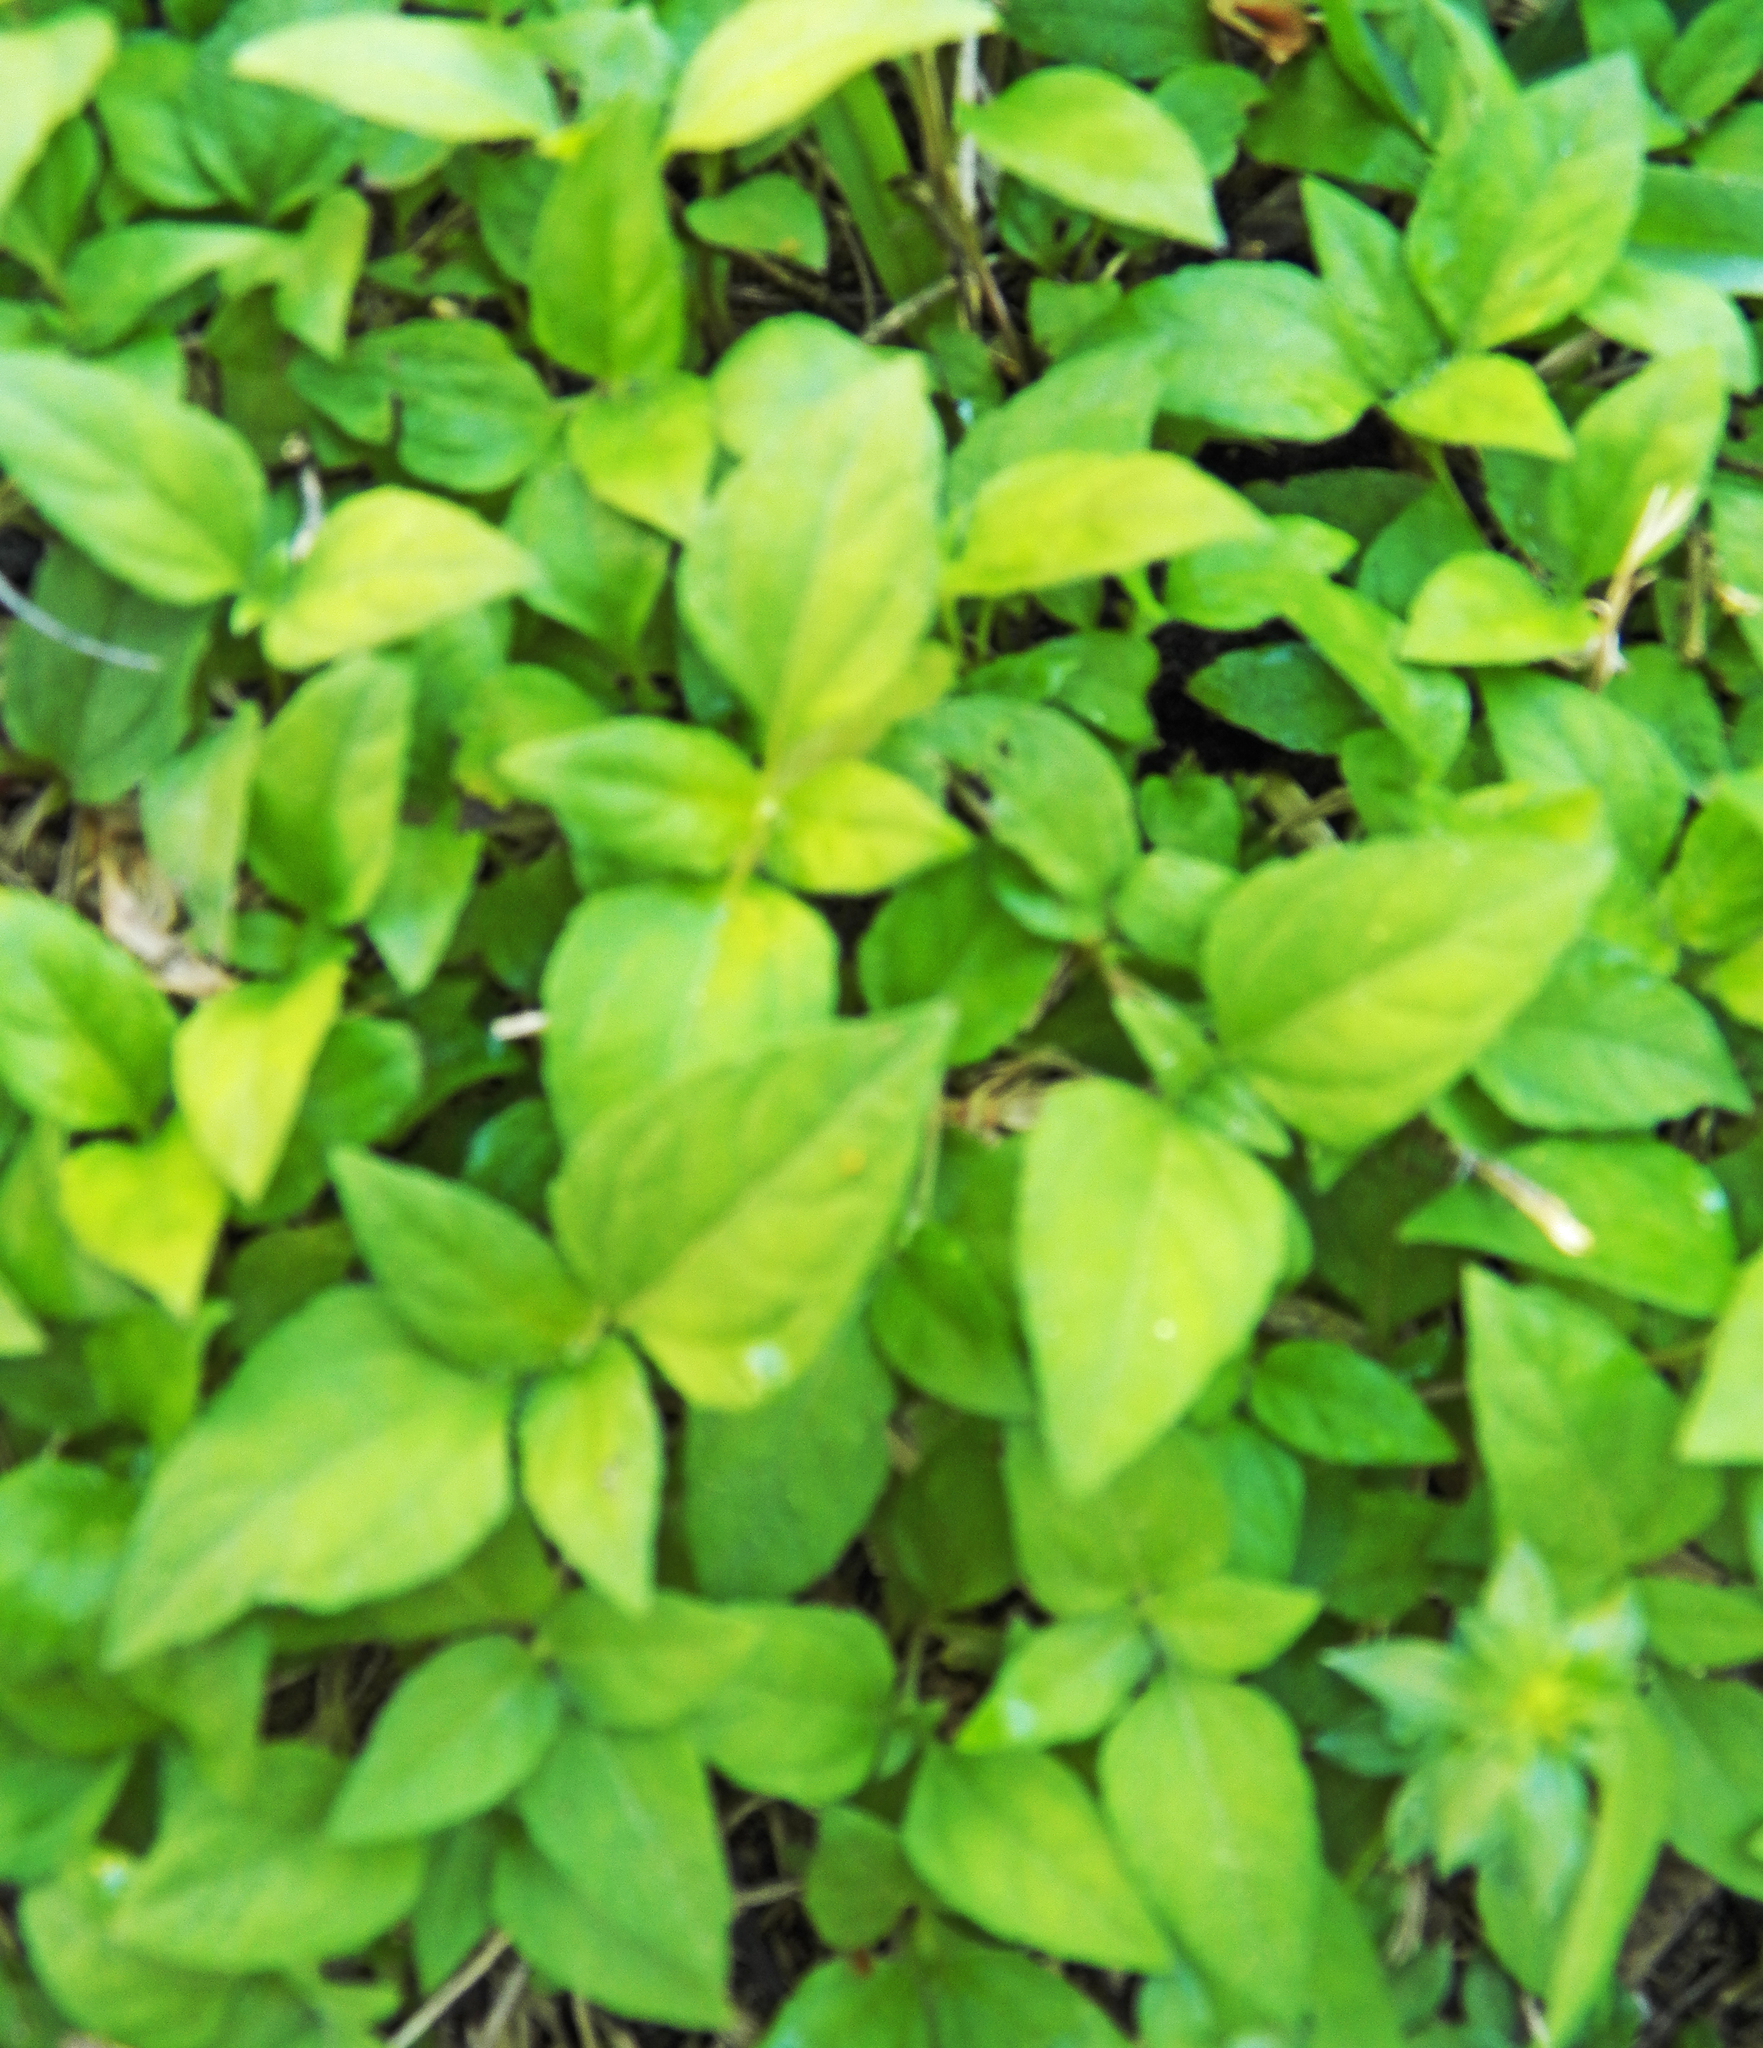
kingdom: Plantae
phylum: Tracheophyta
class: Magnoliopsida
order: Asterales
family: Asteraceae
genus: Calyptocarpus
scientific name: Calyptocarpus vialis
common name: Straggler daisy
